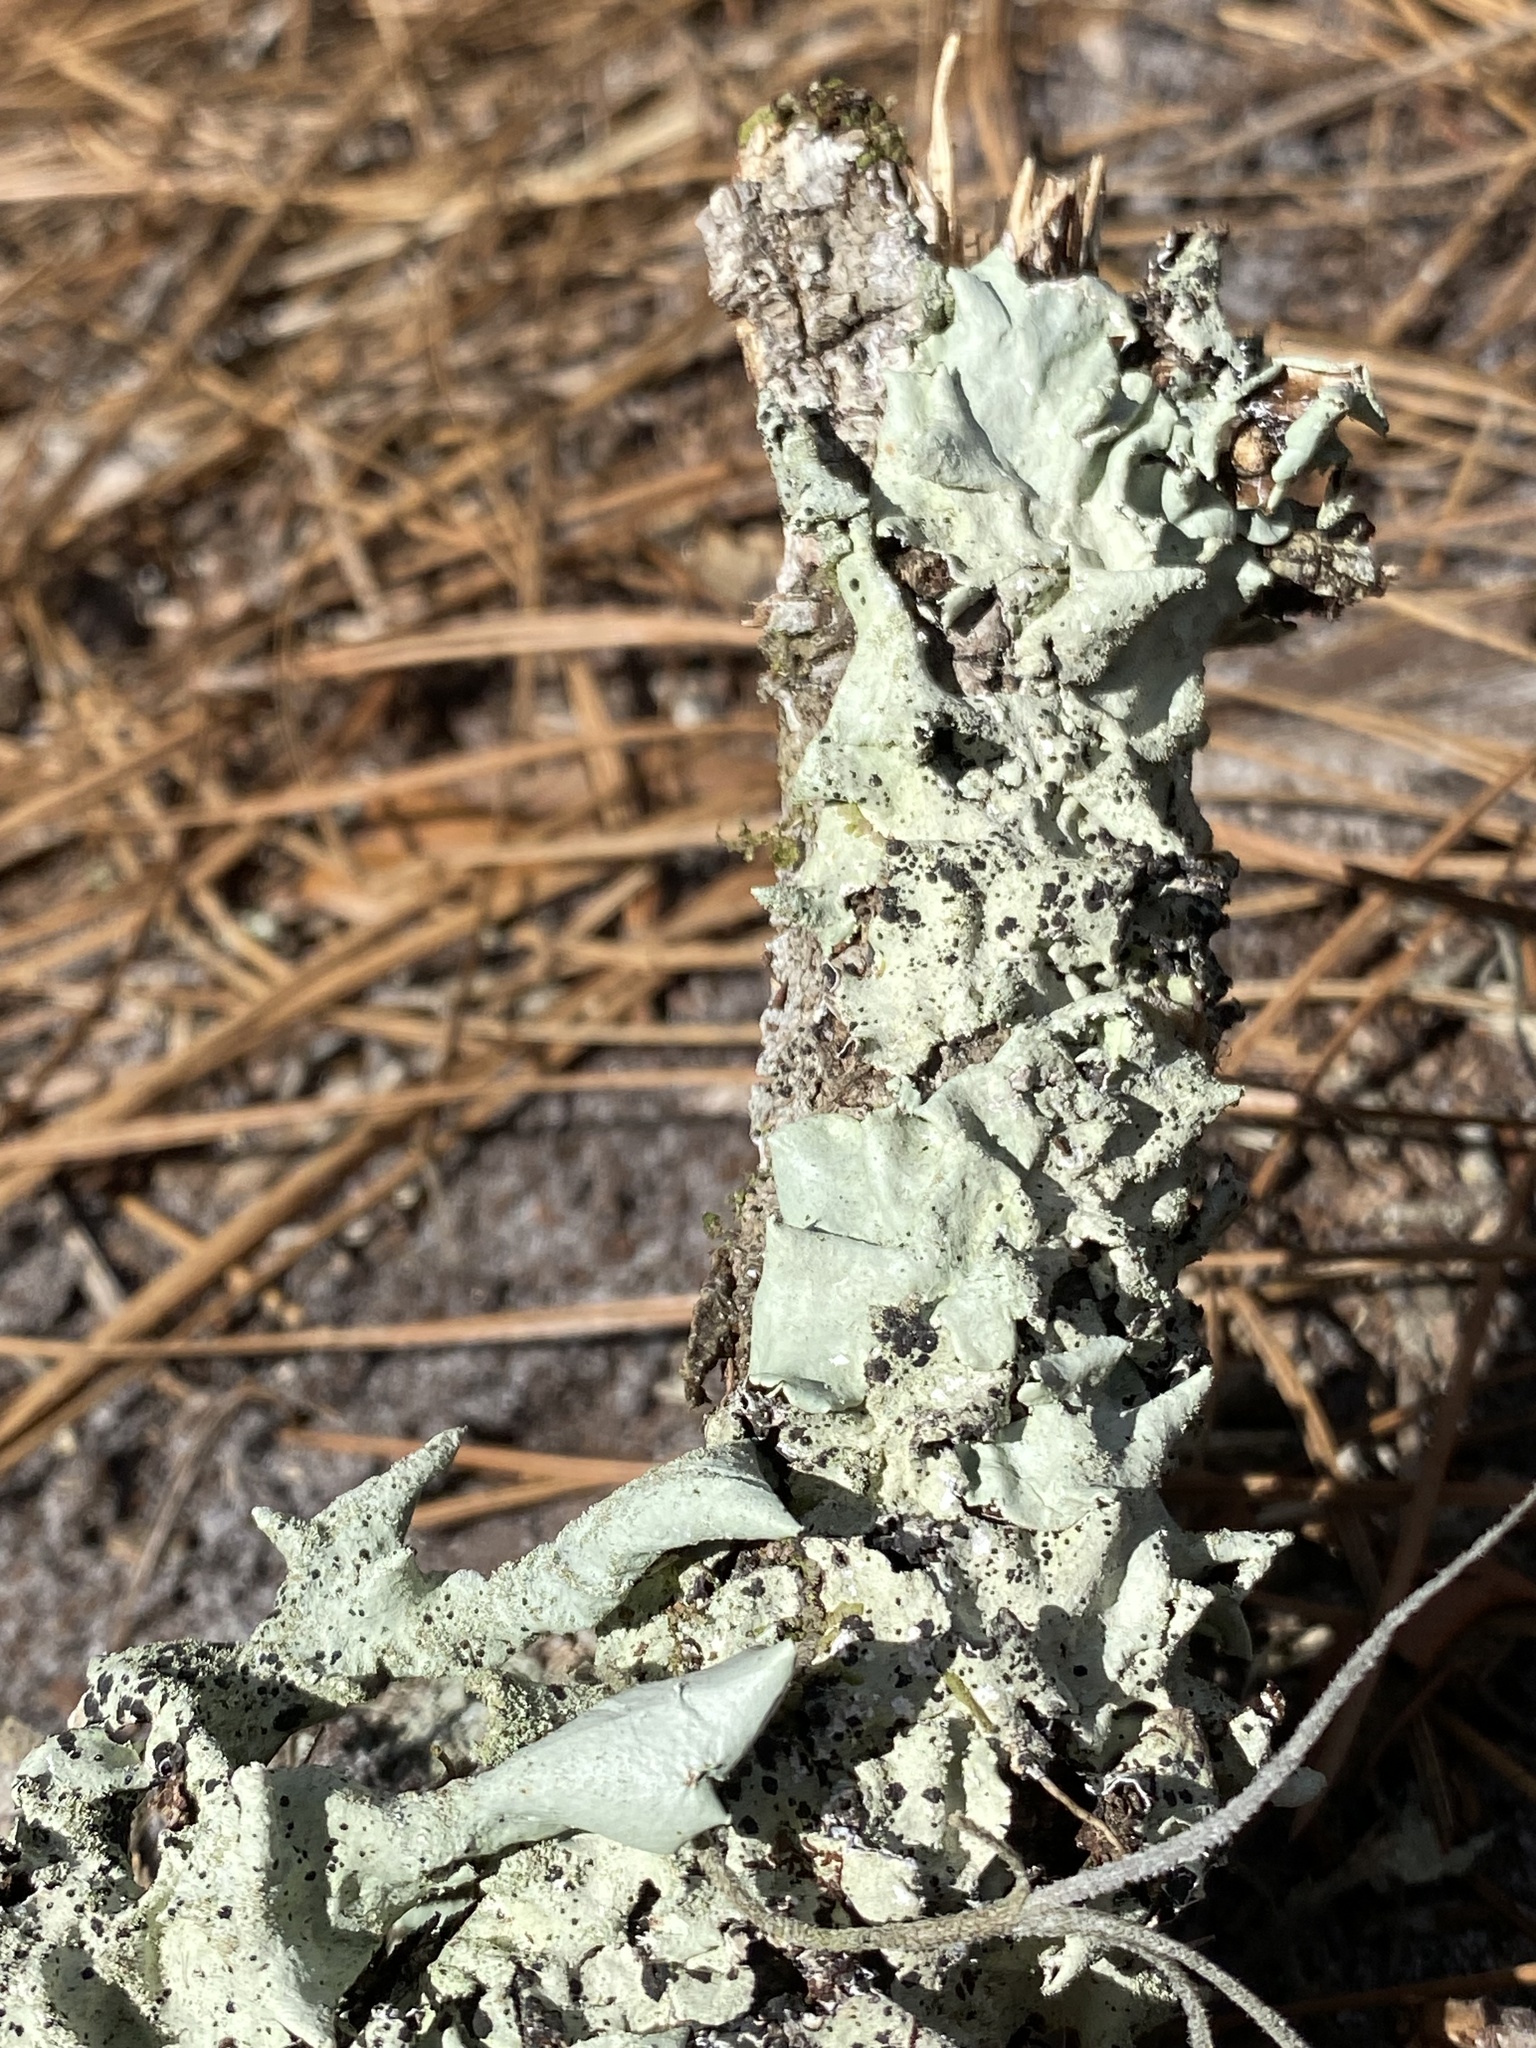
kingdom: Fungi
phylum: Ascomycota
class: Lecanoromycetes
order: Lecanorales
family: Parmeliaceae
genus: Parmotrema
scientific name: Parmotrema tinctorum
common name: Old gray ruffles
